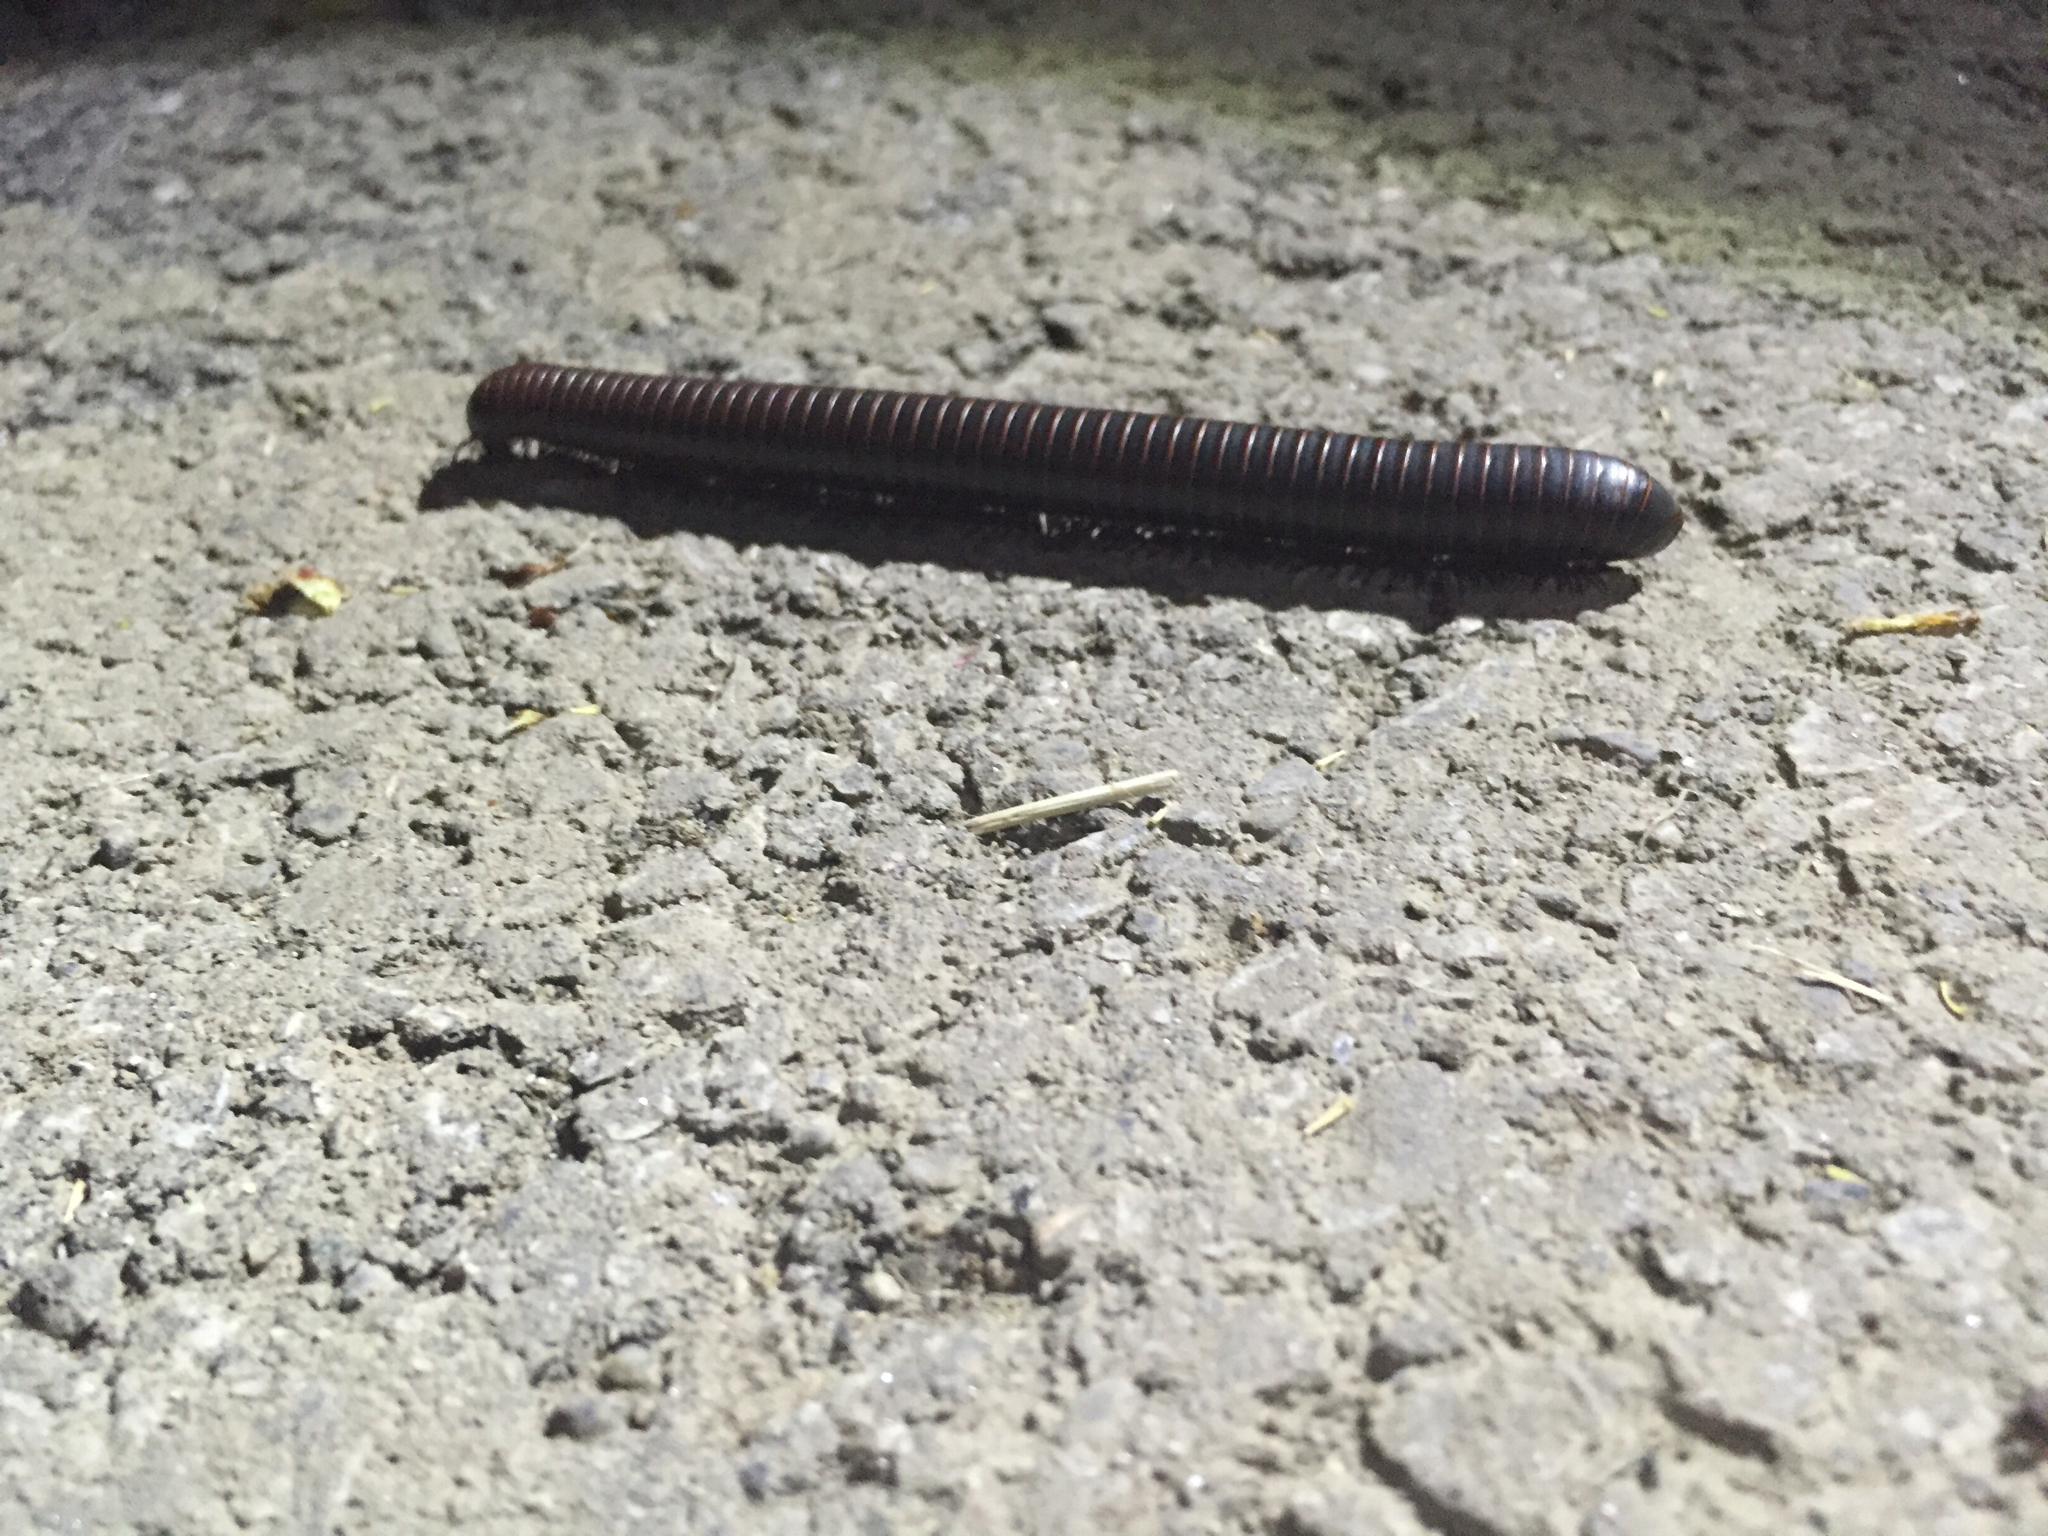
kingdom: Animalia
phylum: Arthropoda
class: Diplopoda
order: Spirobolida
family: Spirobolidae
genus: Narceus
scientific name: Narceus
